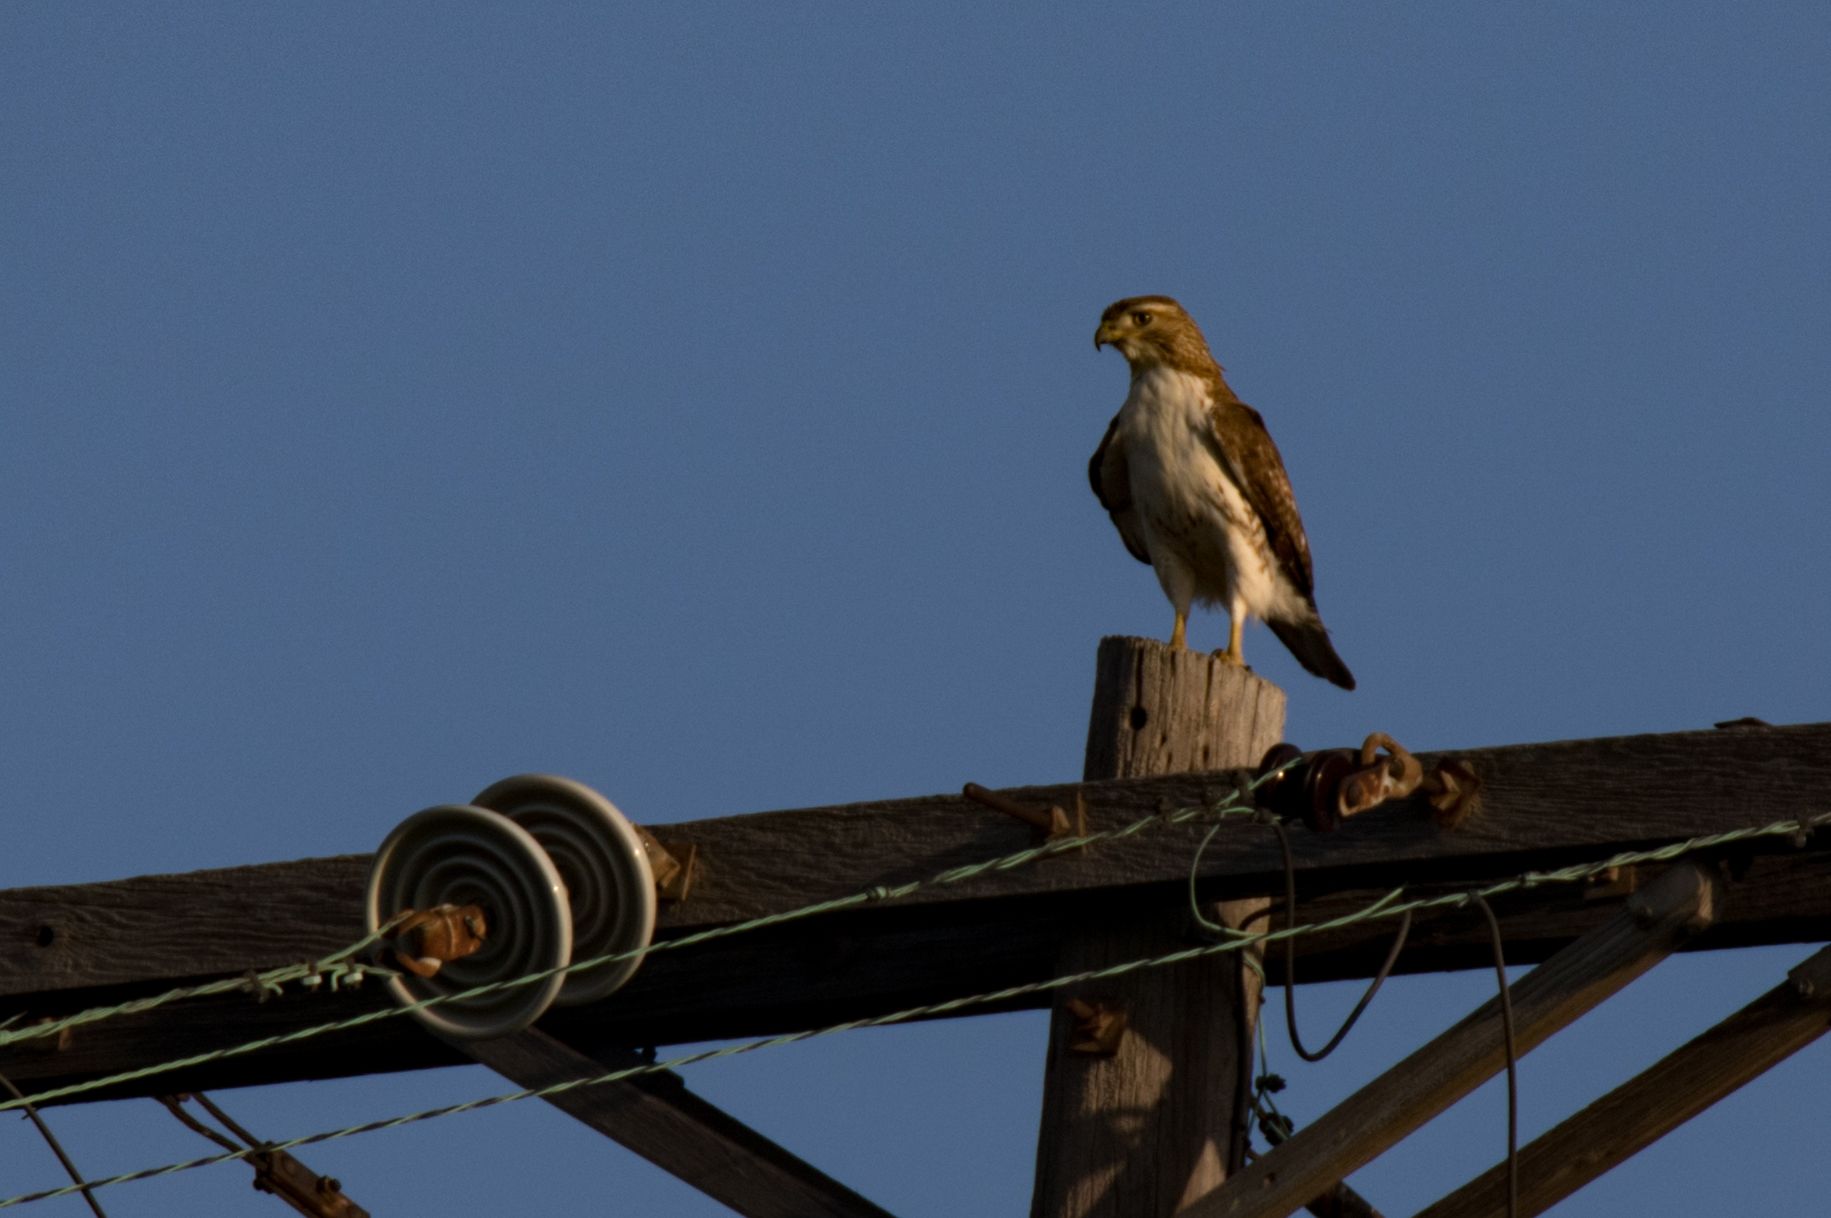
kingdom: Animalia
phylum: Chordata
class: Aves
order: Accipitriformes
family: Accipitridae
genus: Buteo
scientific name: Buteo jamaicensis
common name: Red-tailed hawk
